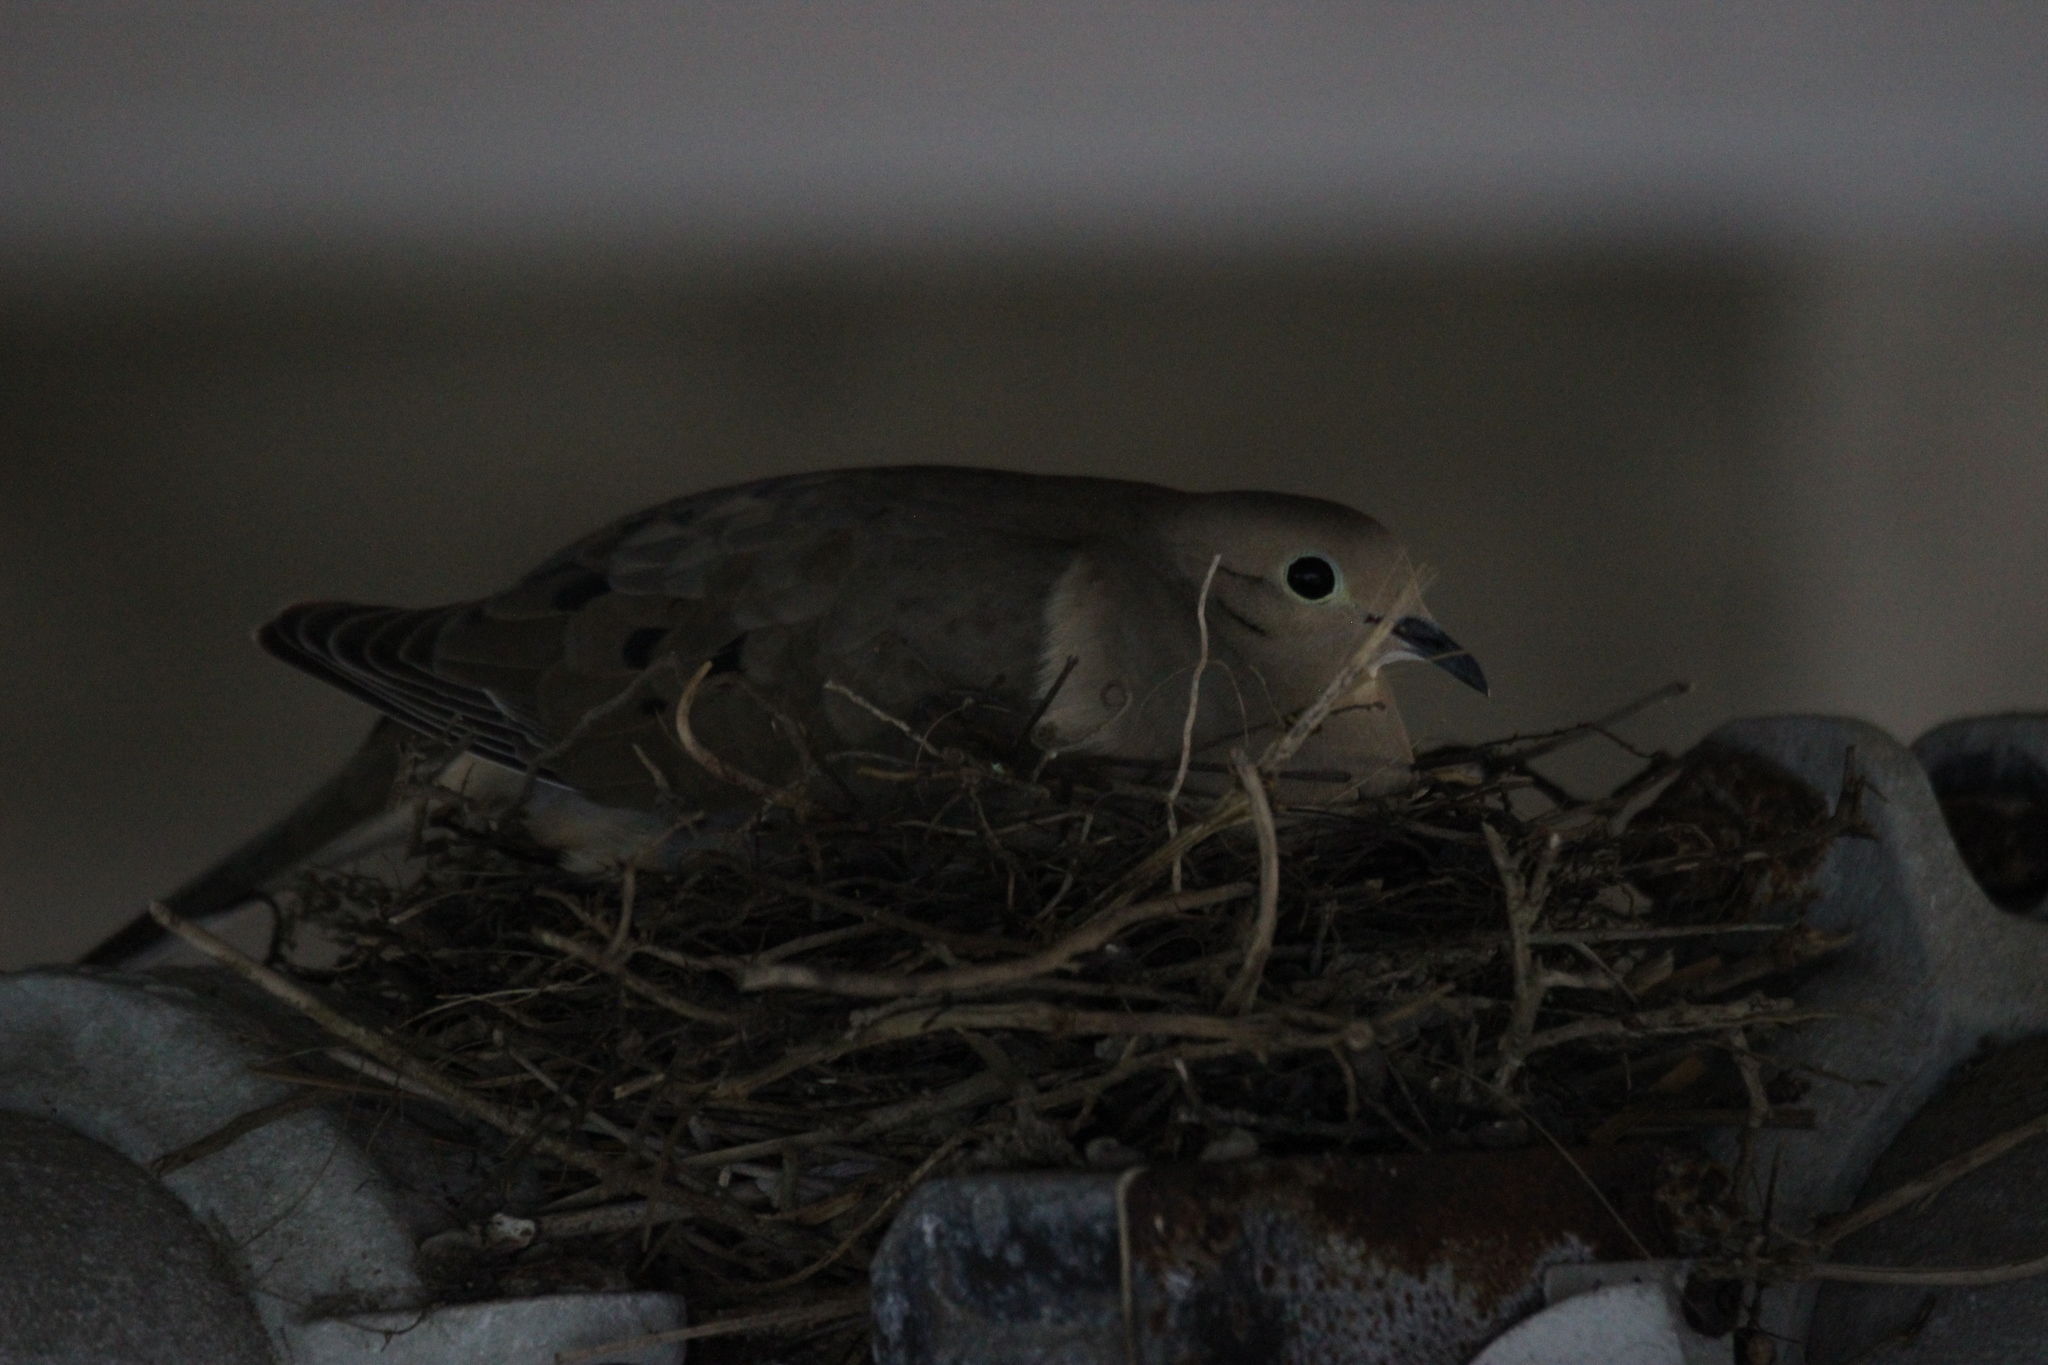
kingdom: Animalia
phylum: Chordata
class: Aves
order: Columbiformes
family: Columbidae
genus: Zenaida
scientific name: Zenaida macroura
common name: Mourning dove
